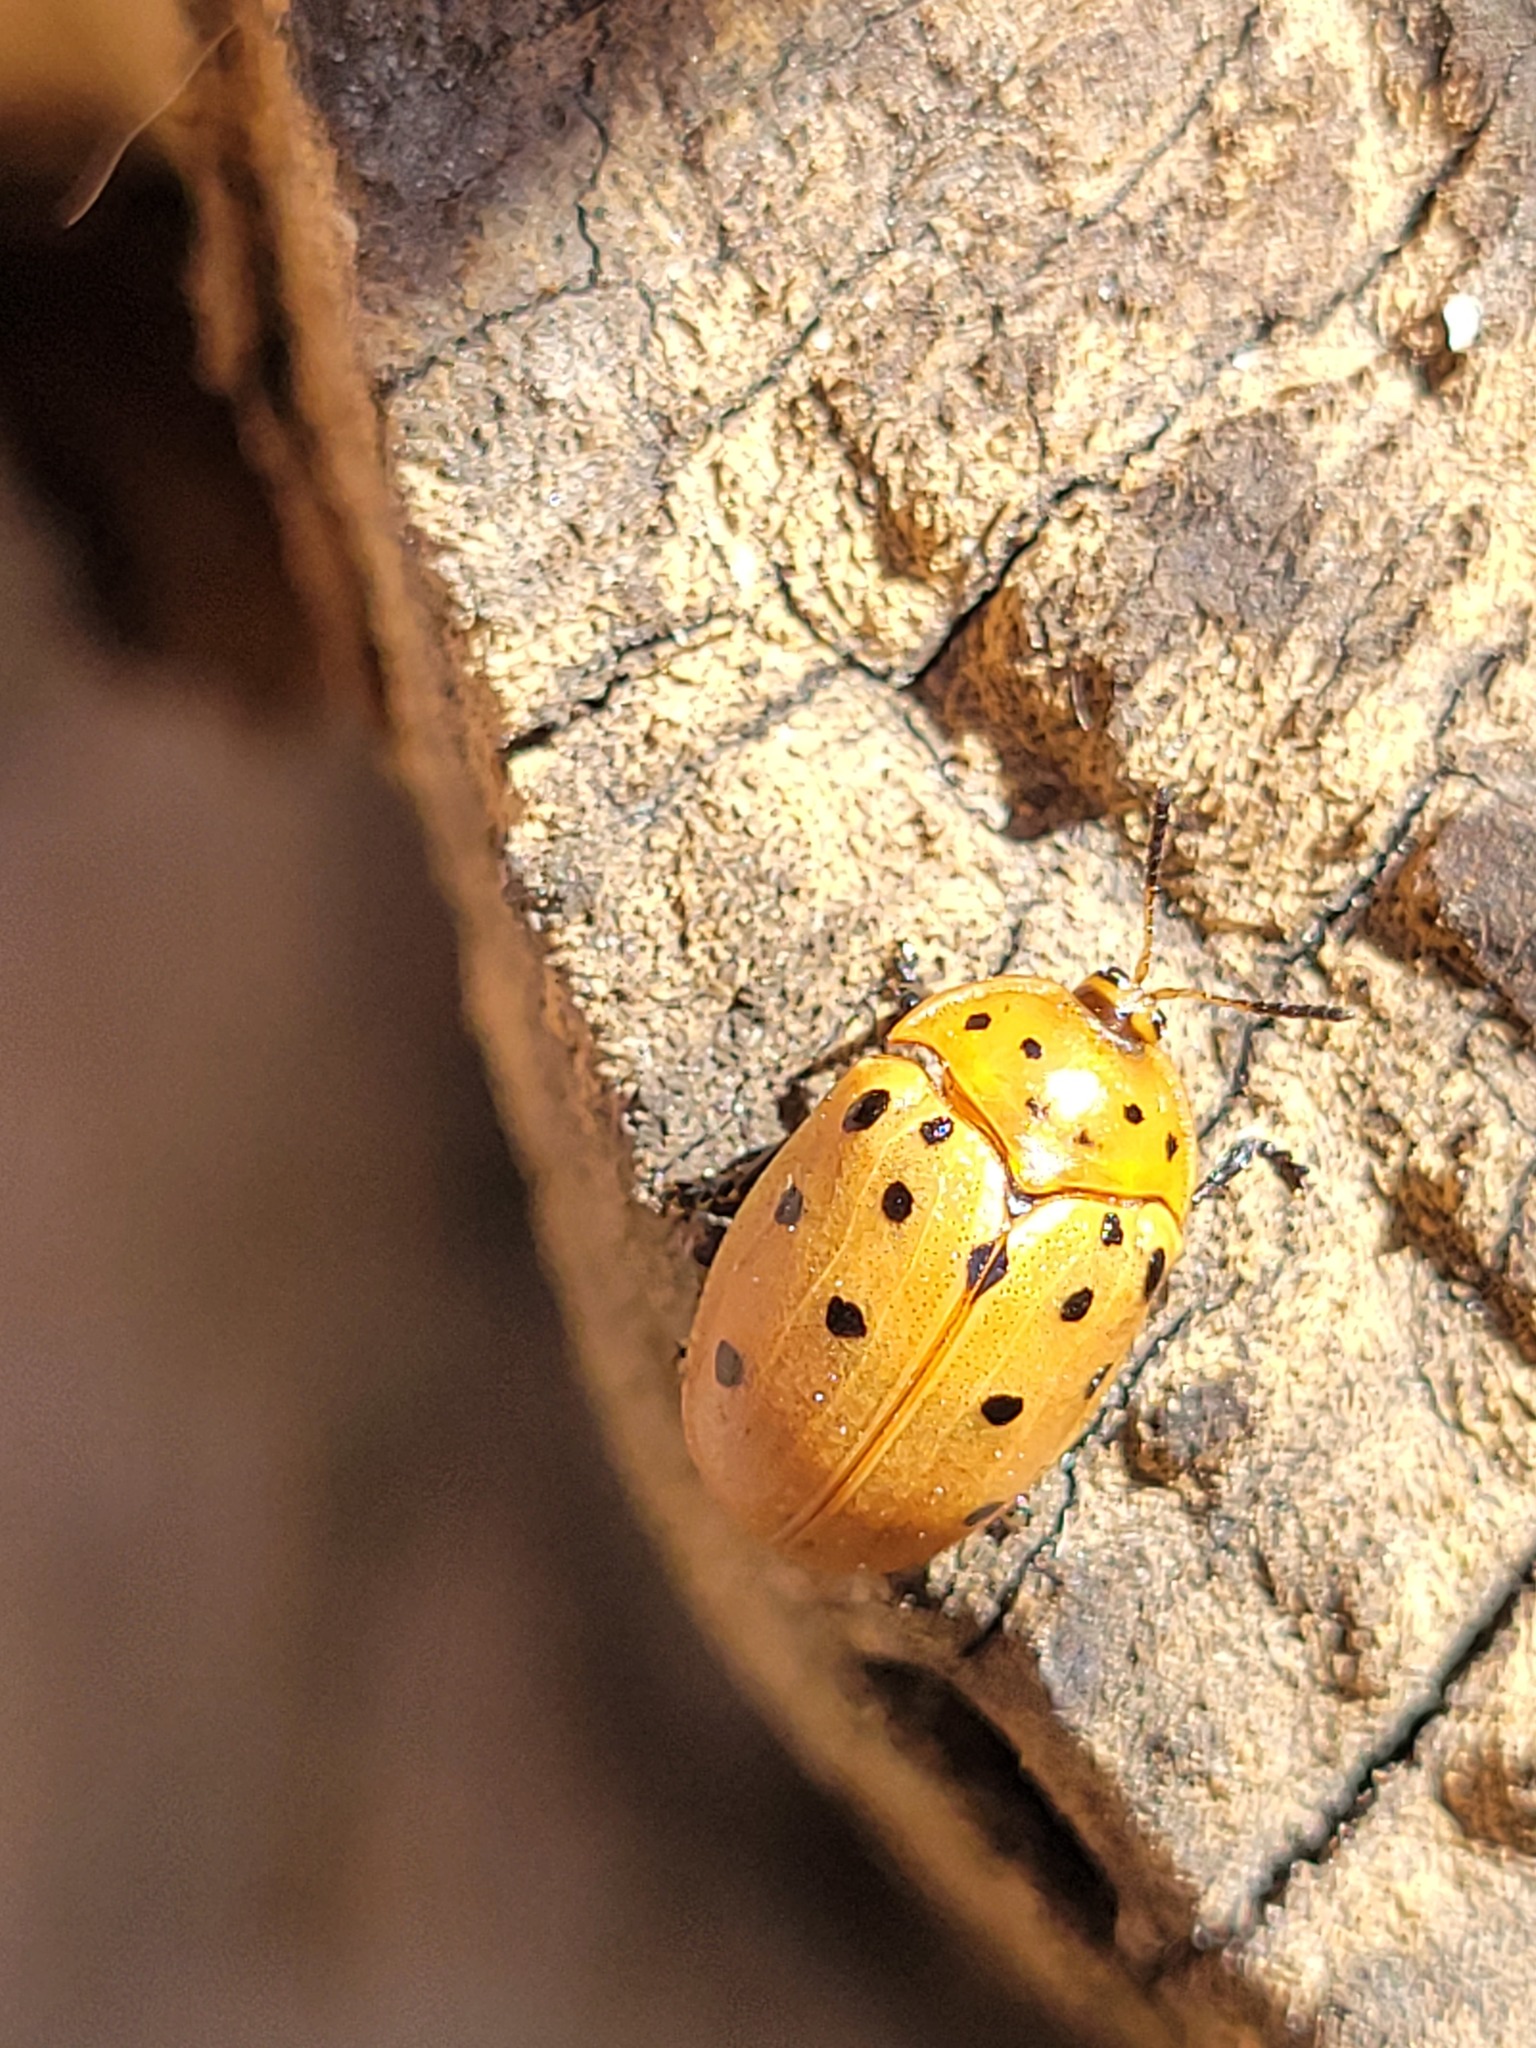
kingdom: Animalia
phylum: Arthropoda
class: Insecta
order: Coleoptera
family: Chrysomelidae
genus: Chelymorpha
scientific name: Chelymorpha cassidea
